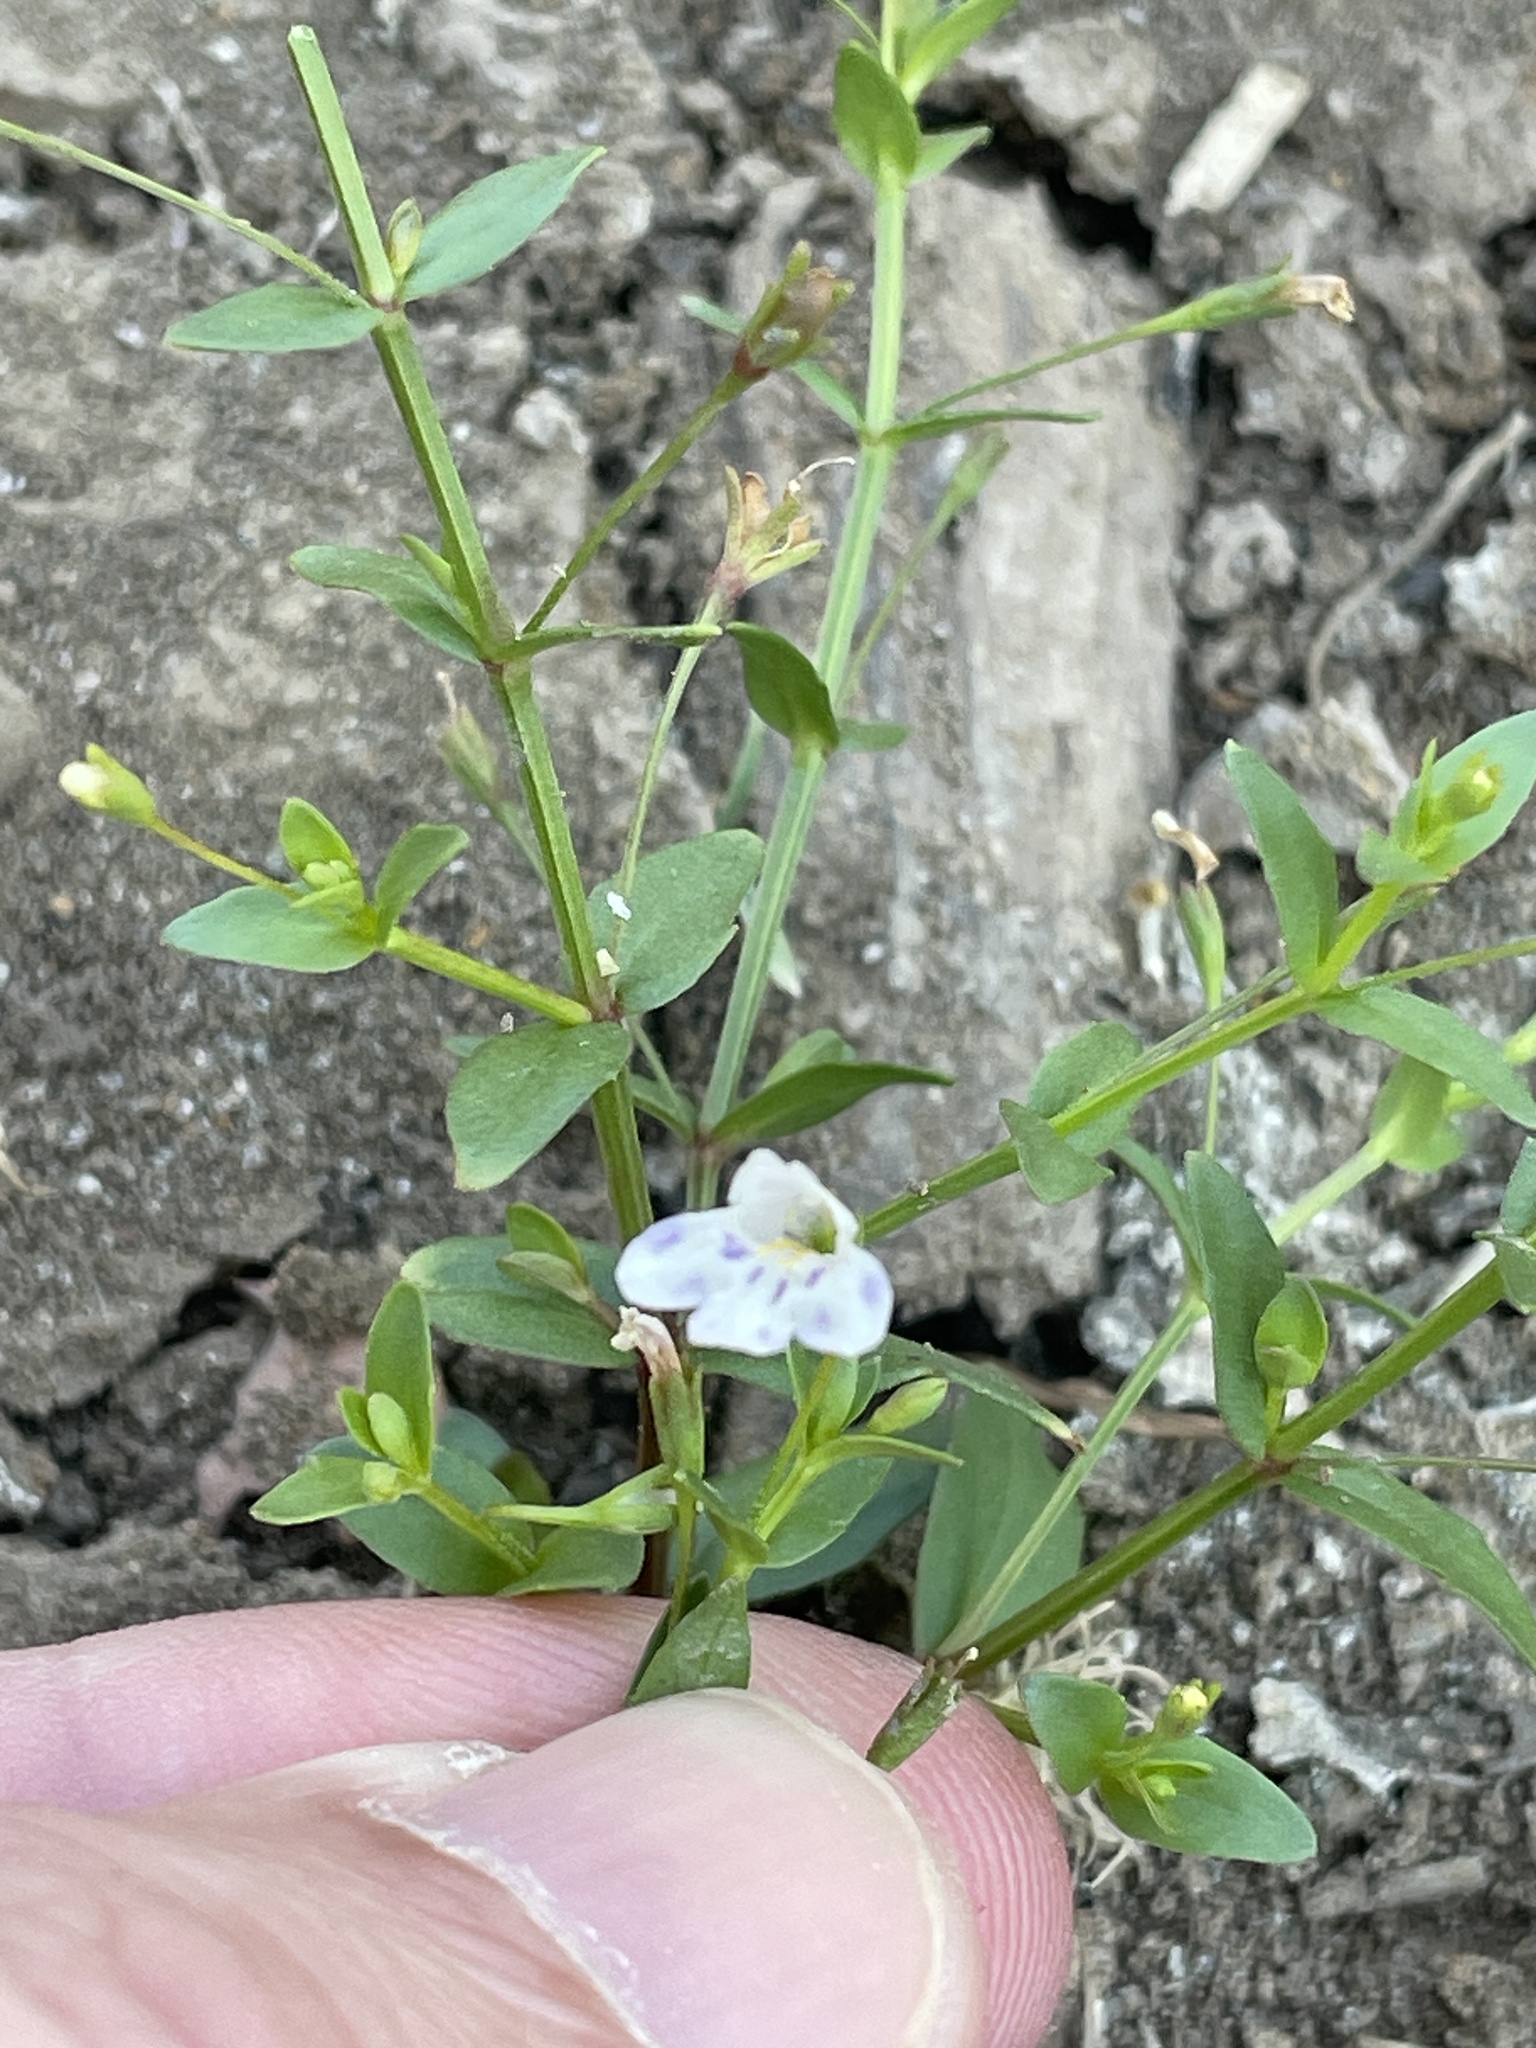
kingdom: Plantae
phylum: Tracheophyta
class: Magnoliopsida
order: Lamiales
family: Linderniaceae
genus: Lindernia
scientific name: Lindernia dubia
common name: Annual false pimpernel
